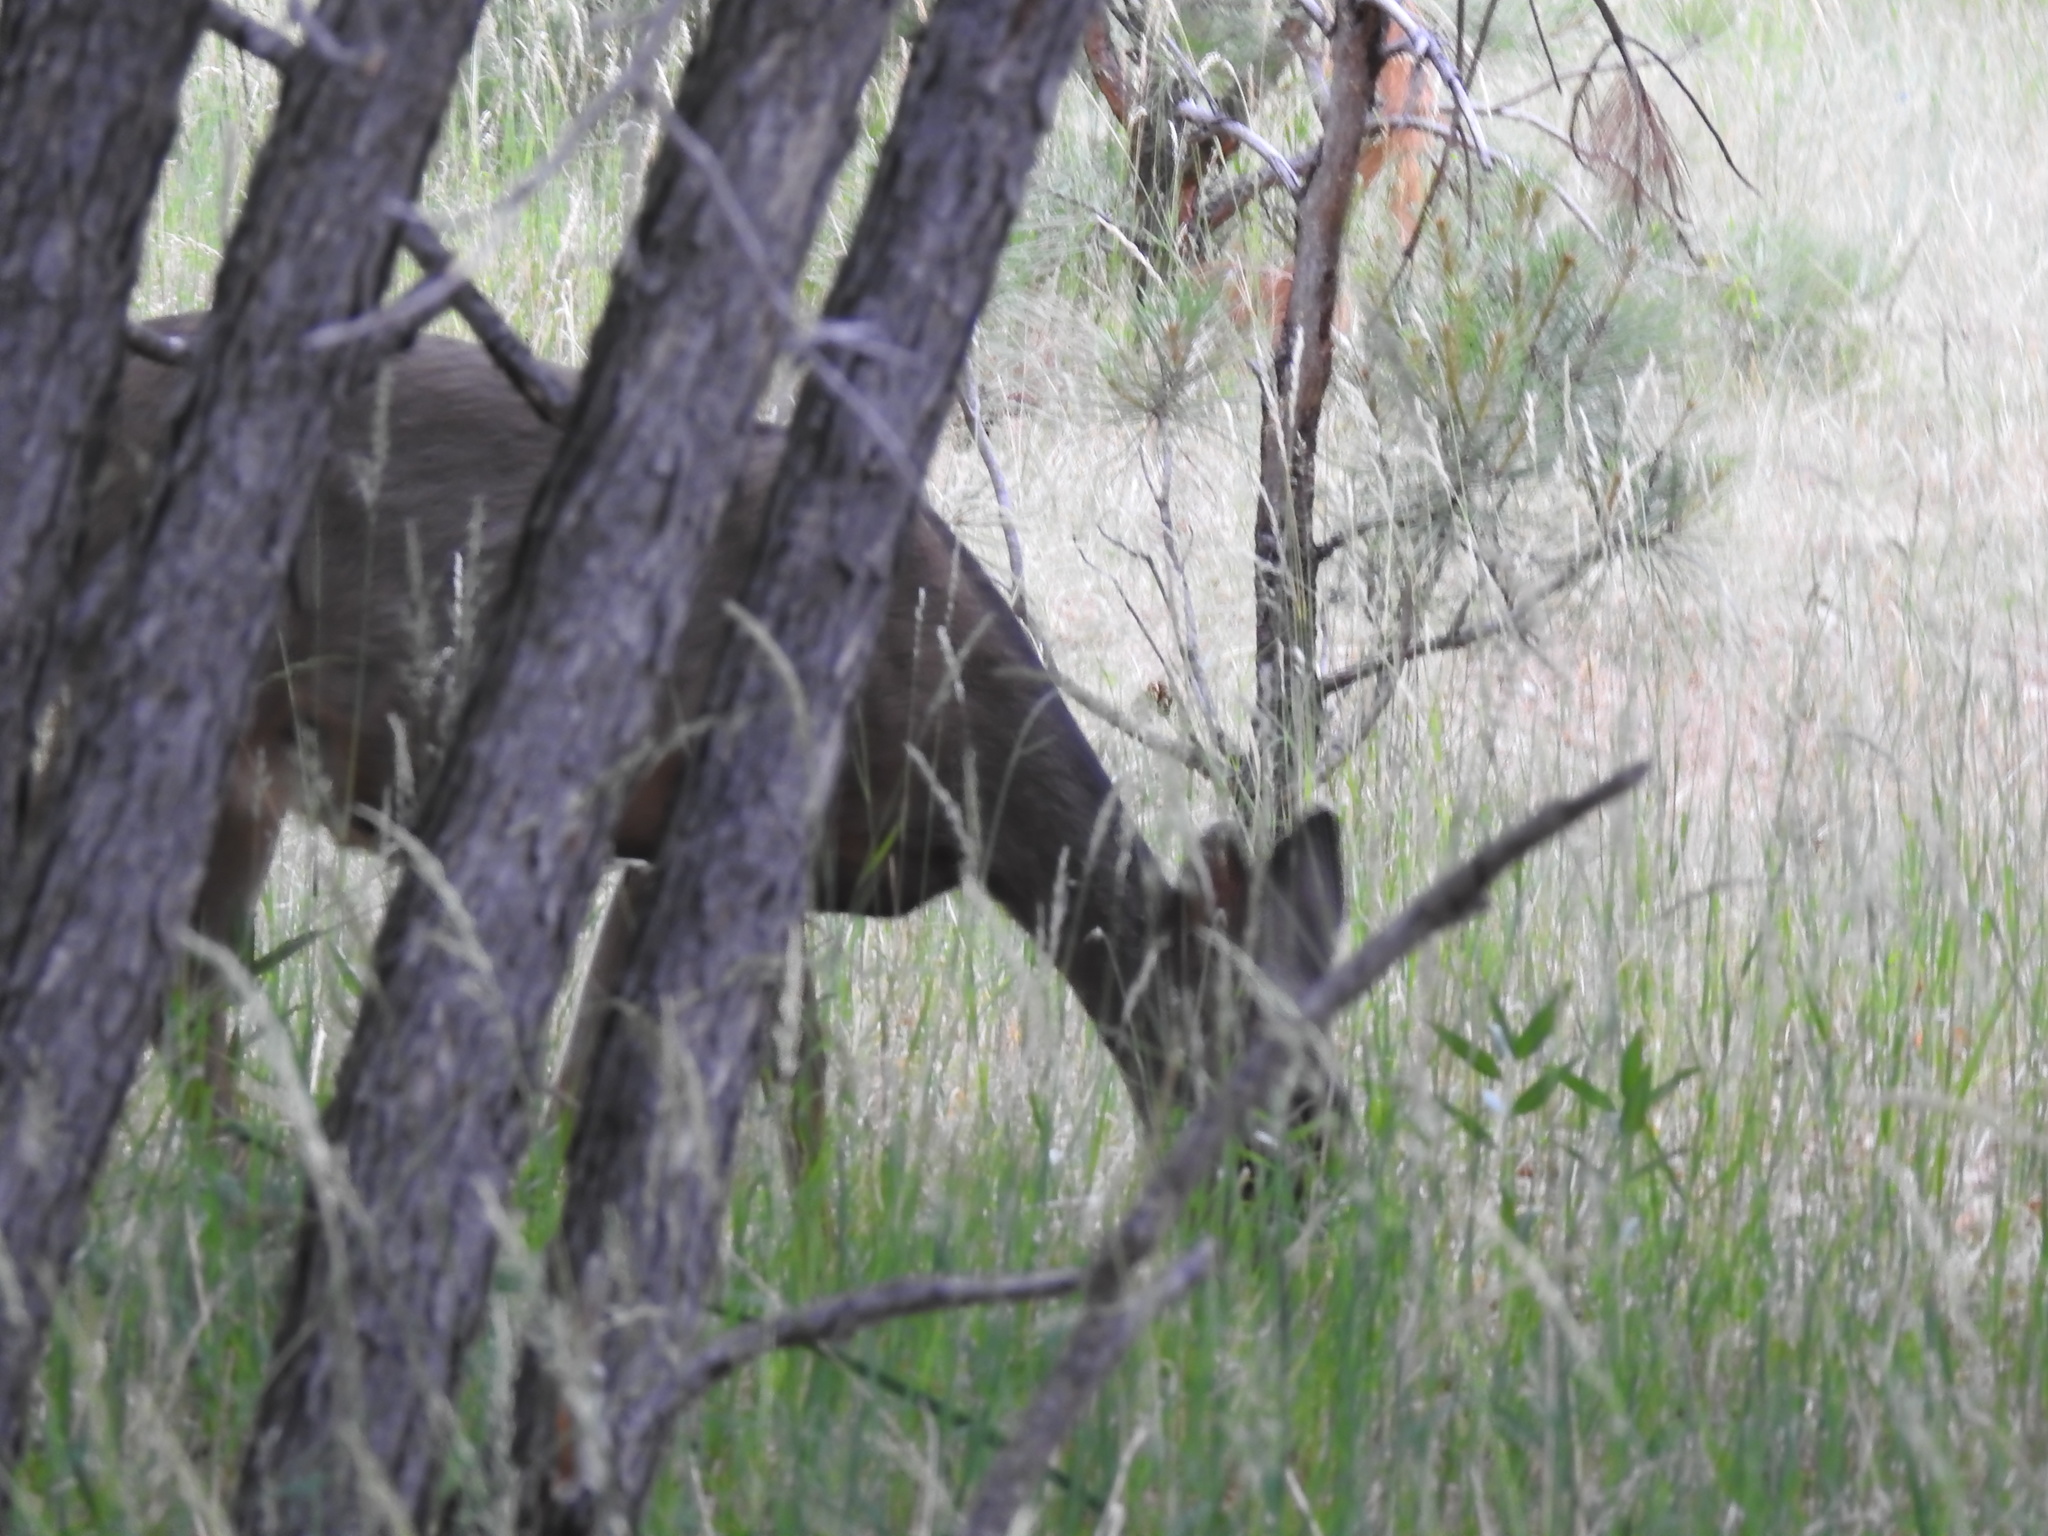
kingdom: Animalia
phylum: Chordata
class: Mammalia
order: Artiodactyla
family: Cervidae
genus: Odocoileus
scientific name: Odocoileus hemionus
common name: Mule deer
